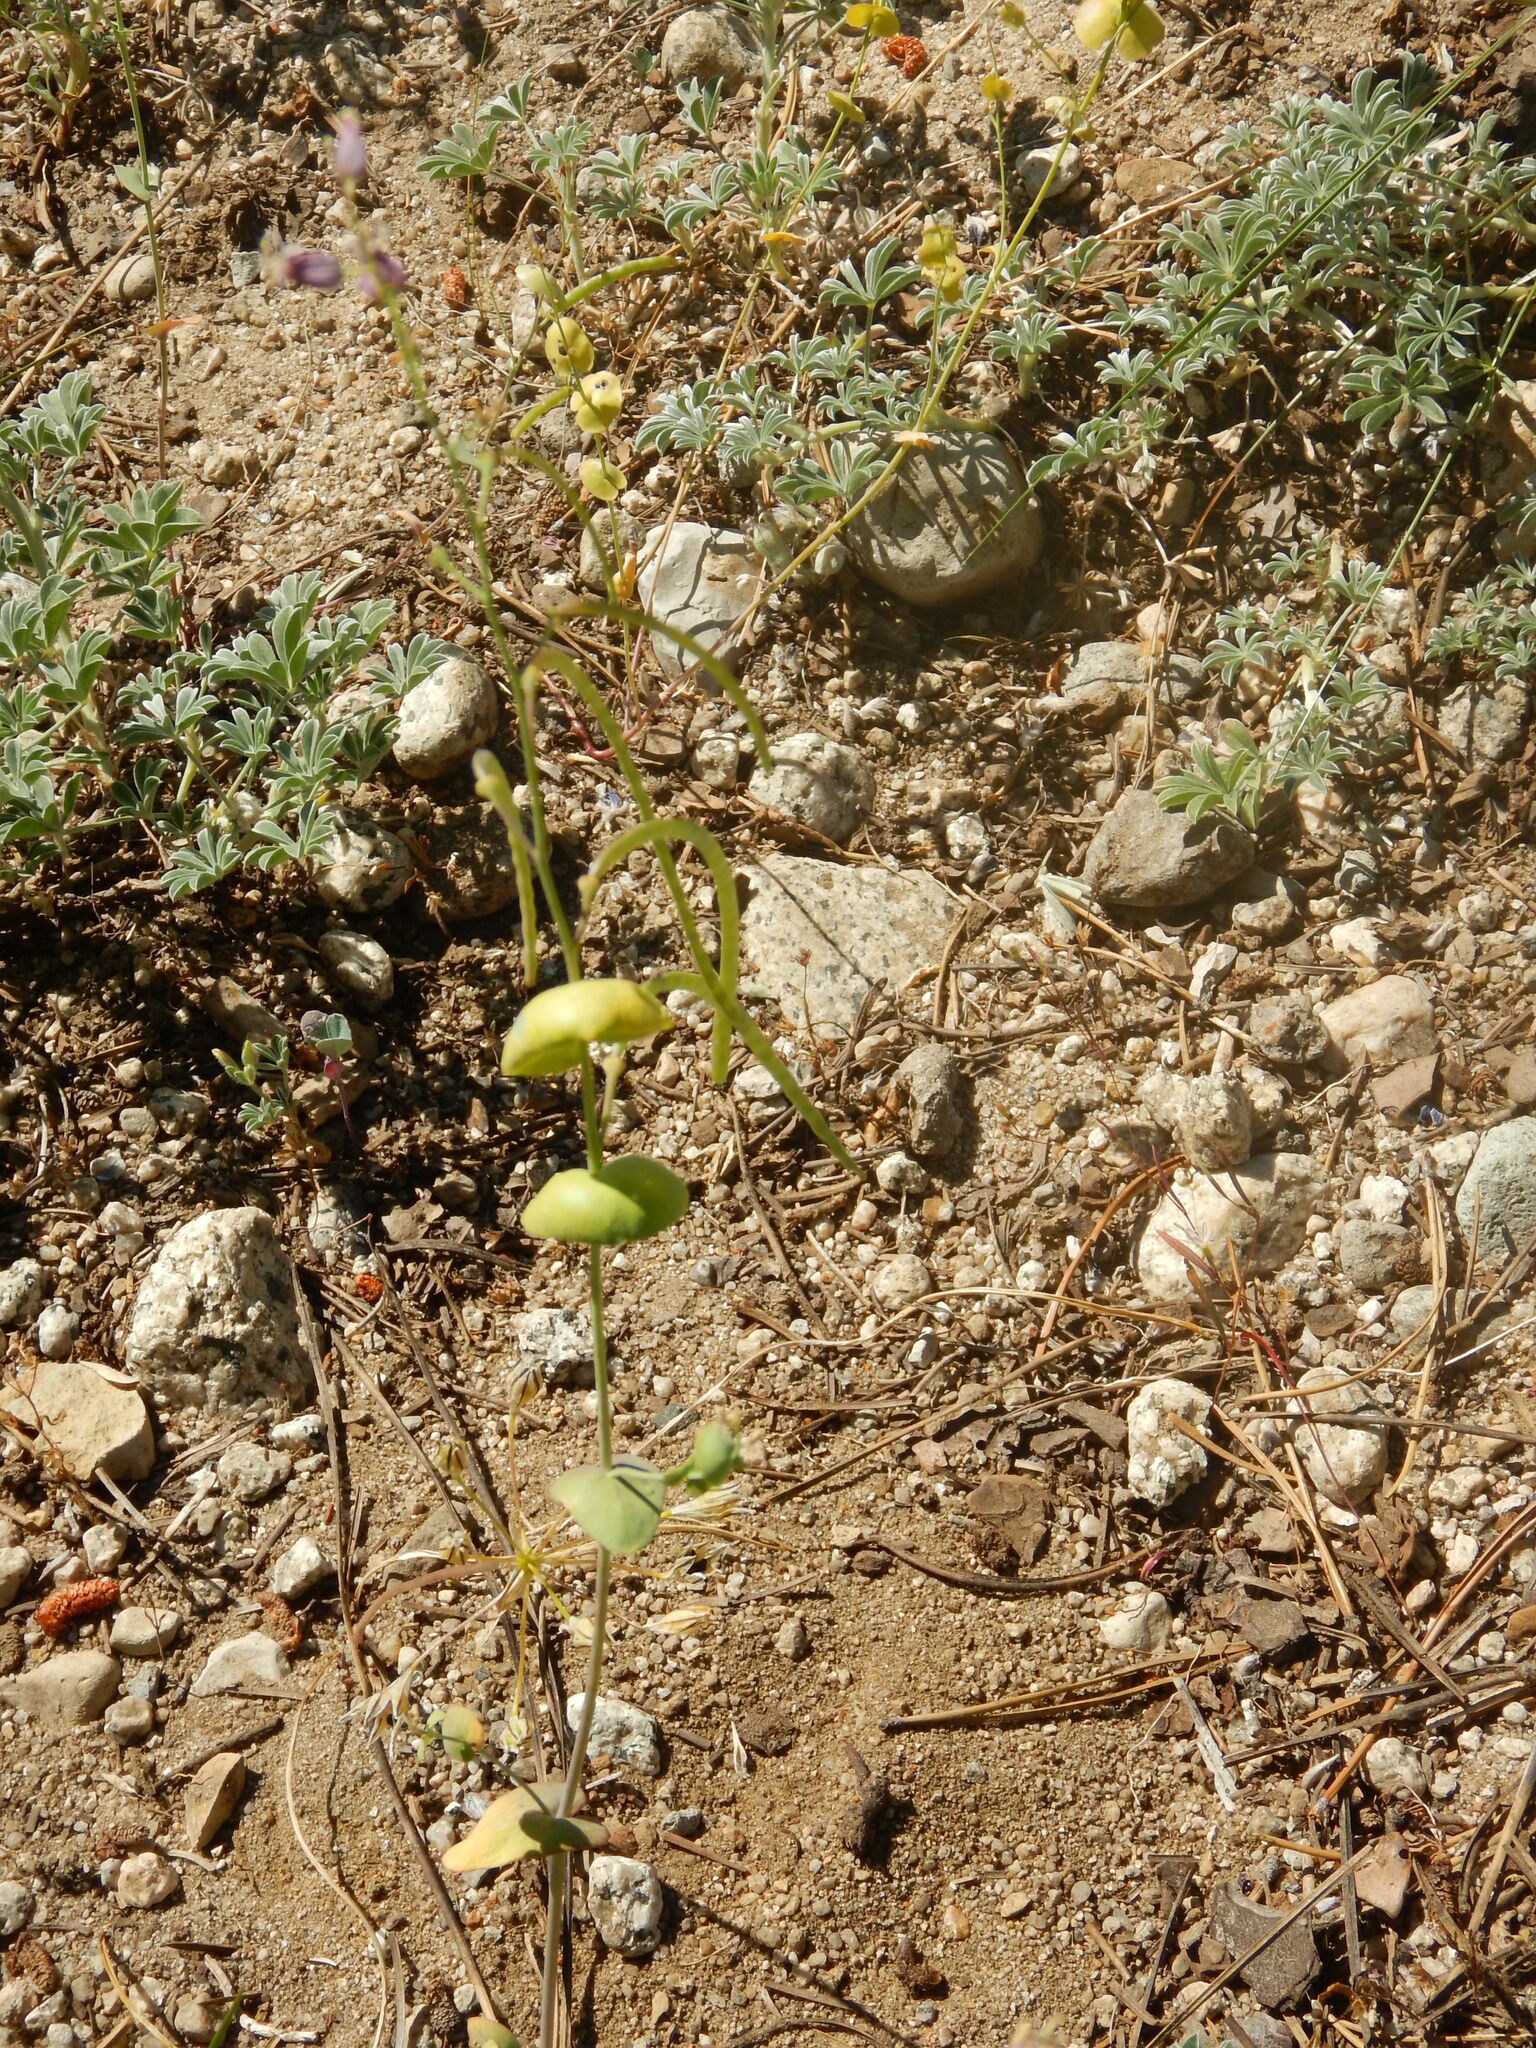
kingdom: Plantae
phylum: Tracheophyta
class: Magnoliopsida
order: Brassicales
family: Brassicaceae
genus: Streptanthus
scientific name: Streptanthus tortuosus
